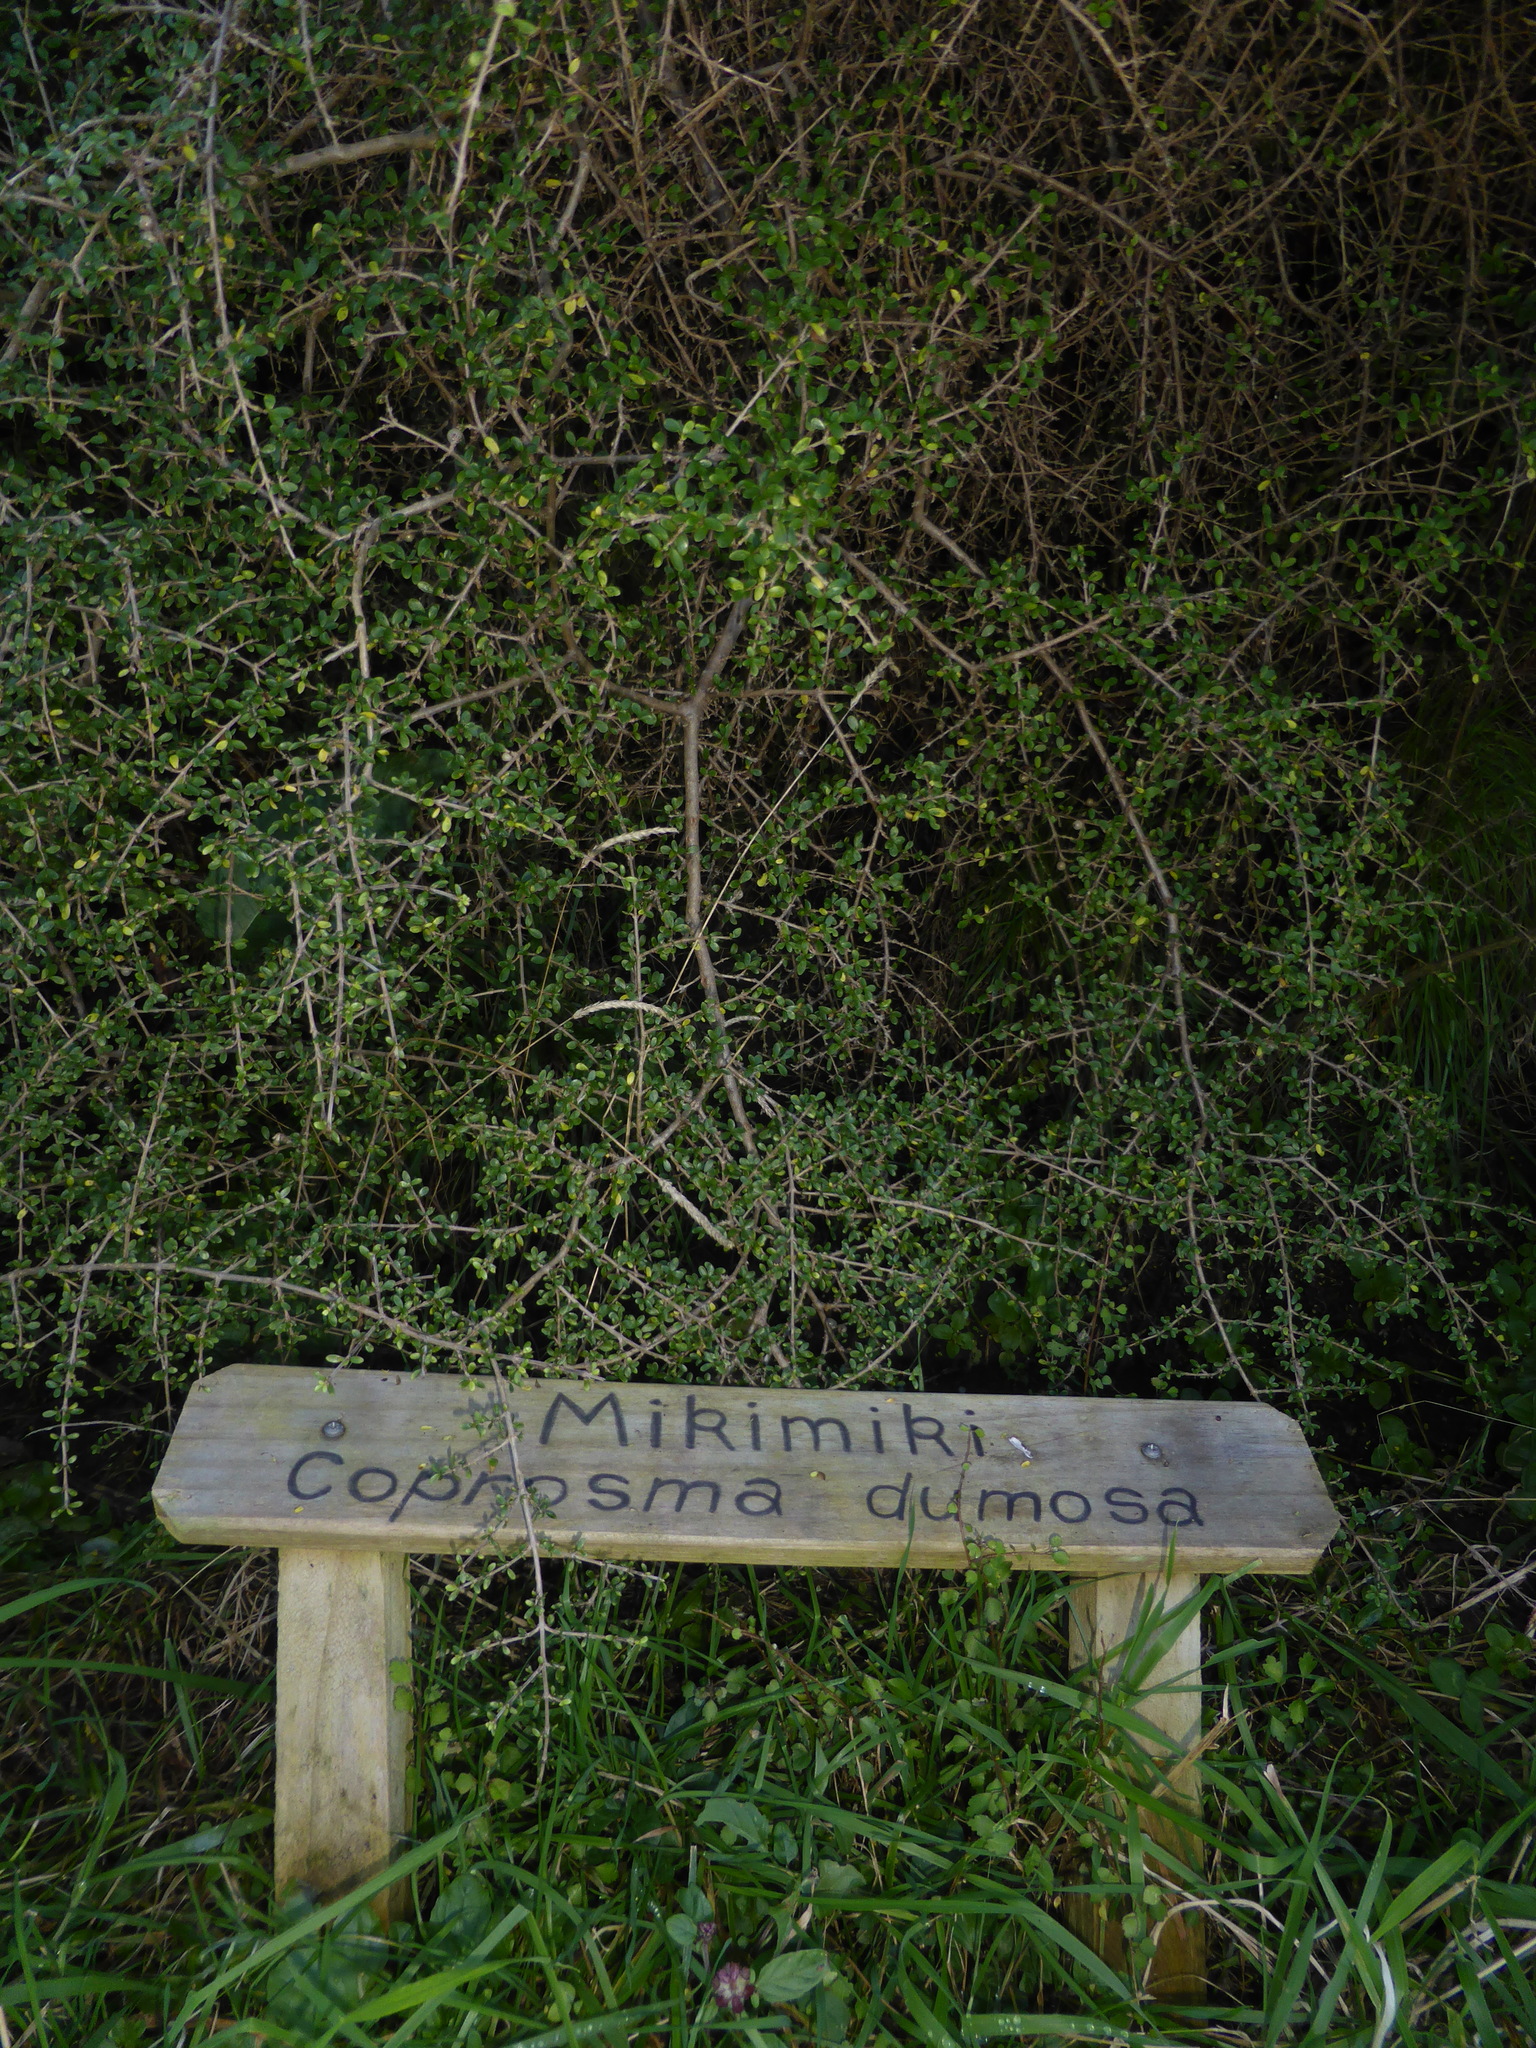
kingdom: Plantae
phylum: Tracheophyta
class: Magnoliopsida
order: Gentianales
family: Rubiaceae
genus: Coprosma
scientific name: Coprosma dumosa
